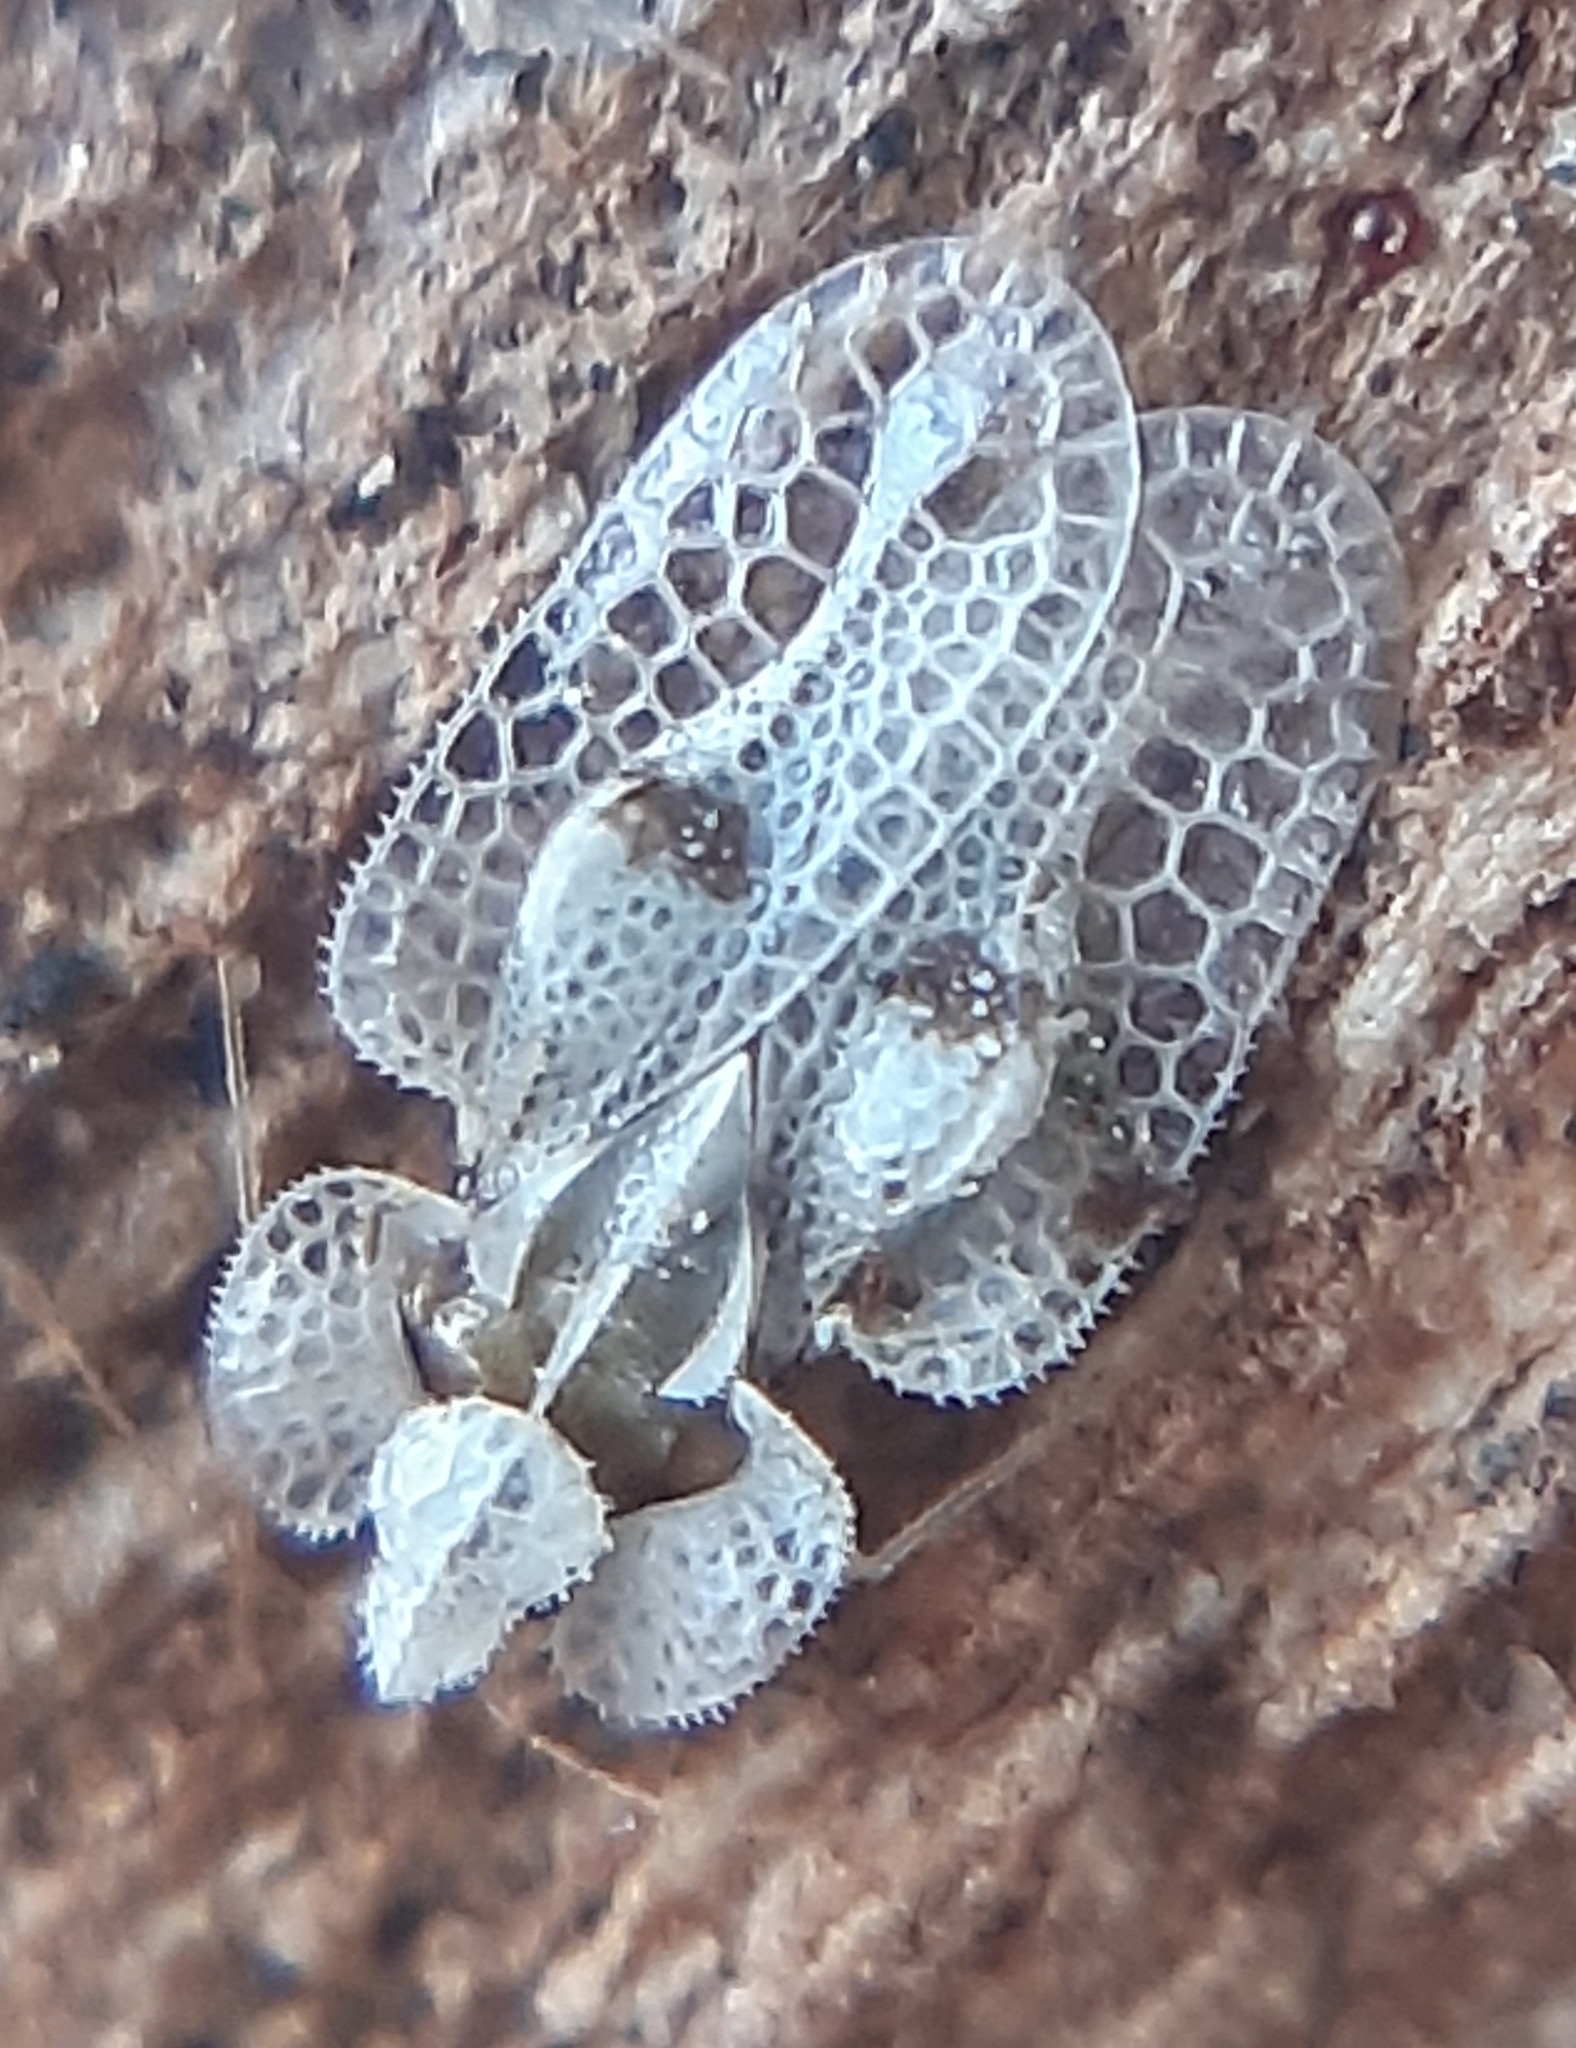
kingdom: Animalia
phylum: Arthropoda
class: Insecta
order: Hemiptera
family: Tingidae
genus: Corythucha
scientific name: Corythucha ciliata
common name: Sycamore lace bug
